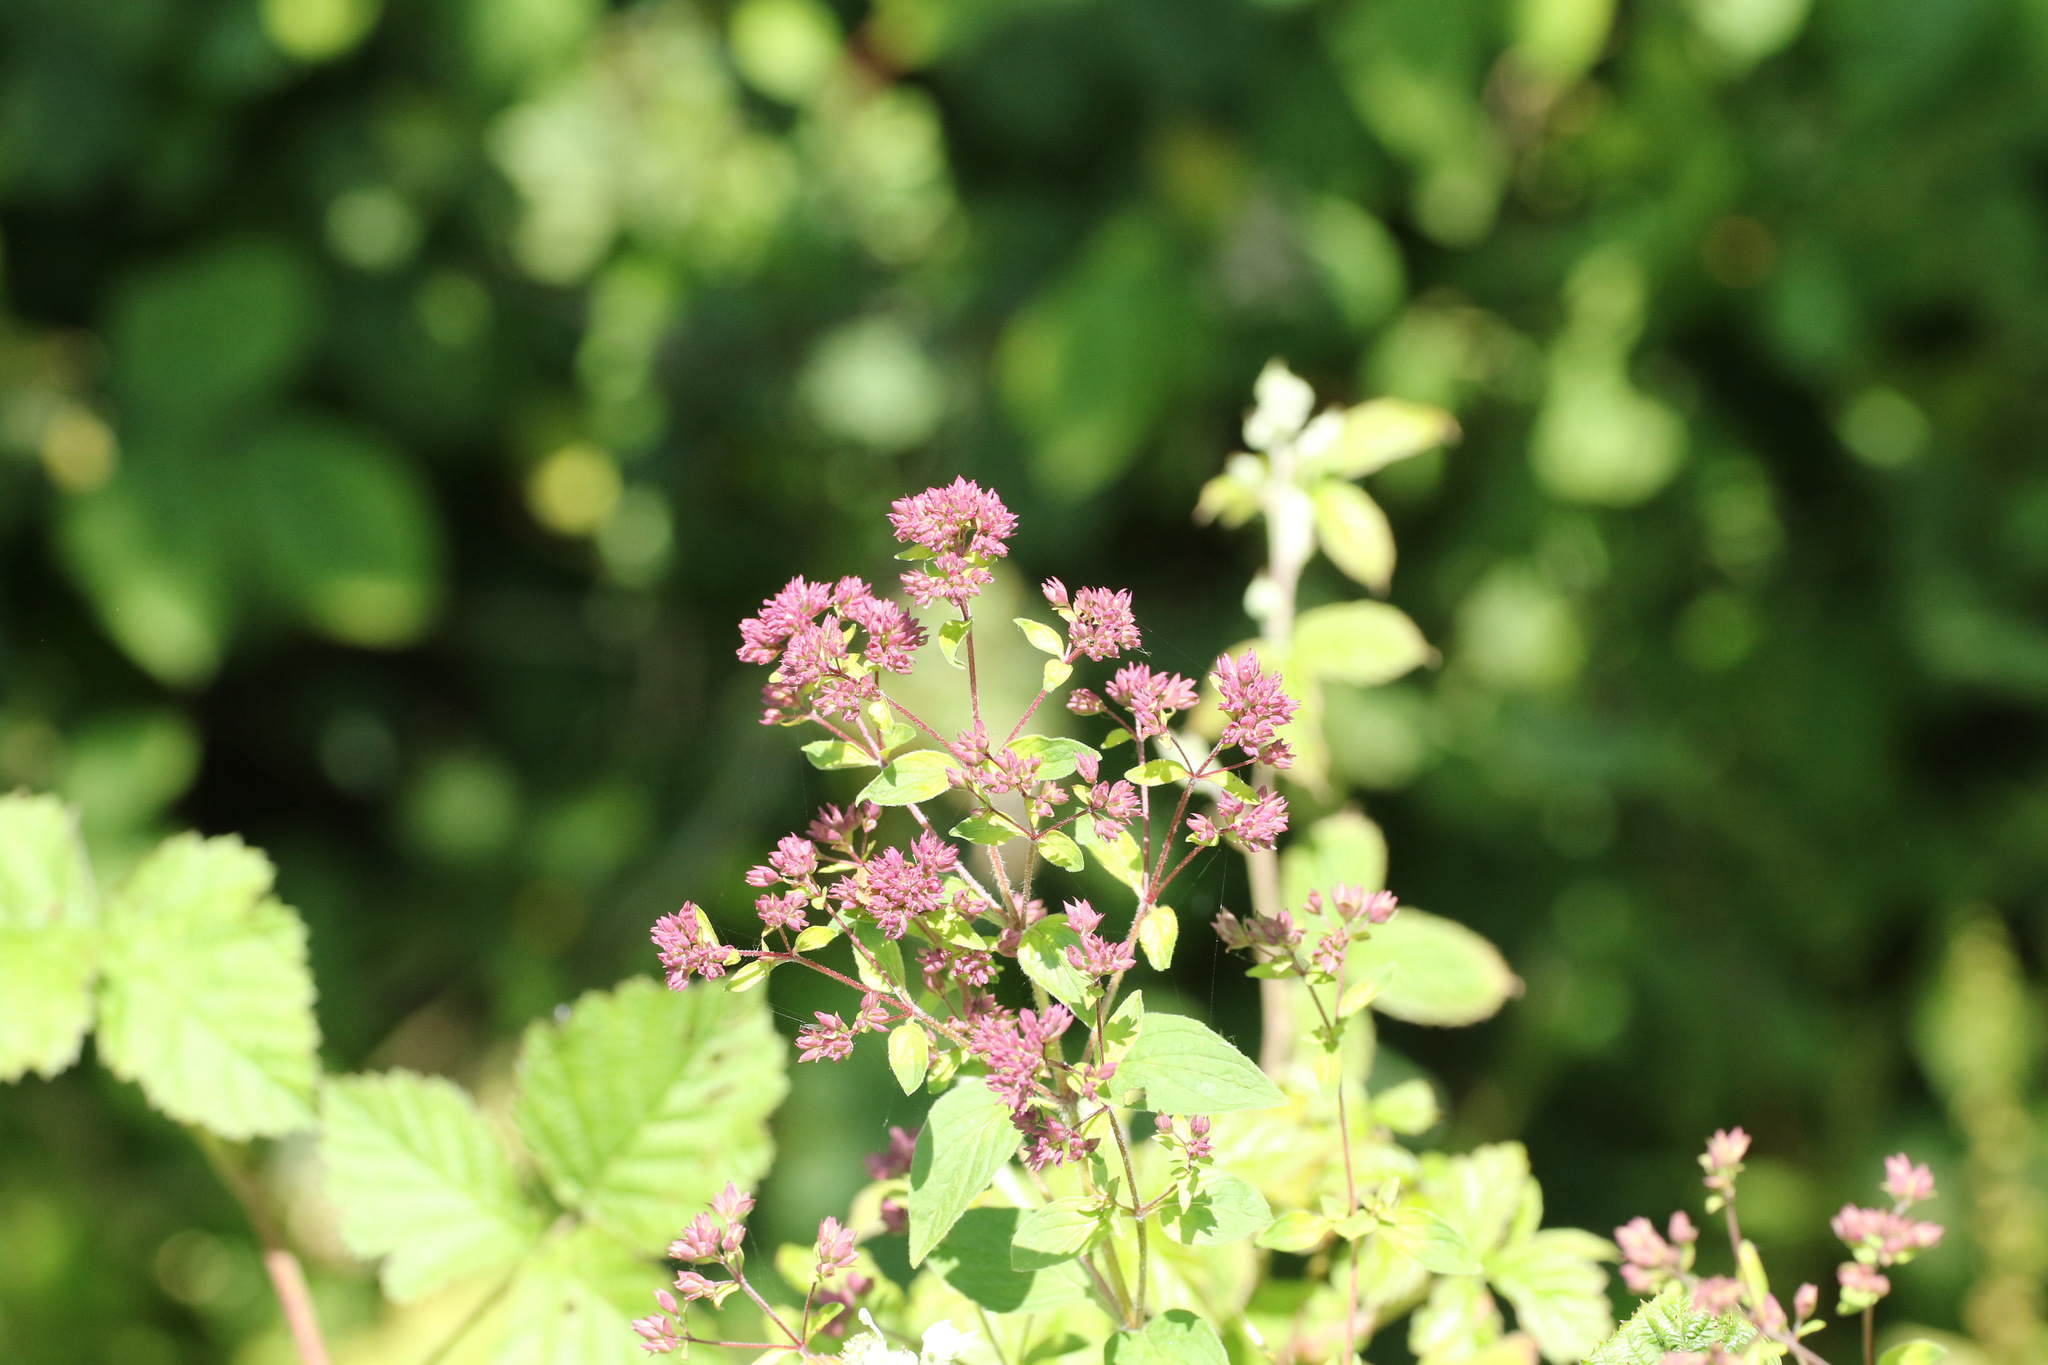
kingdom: Plantae
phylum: Tracheophyta
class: Magnoliopsida
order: Lamiales
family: Lamiaceae
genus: Origanum
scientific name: Origanum vulgare
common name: Wild marjoram
